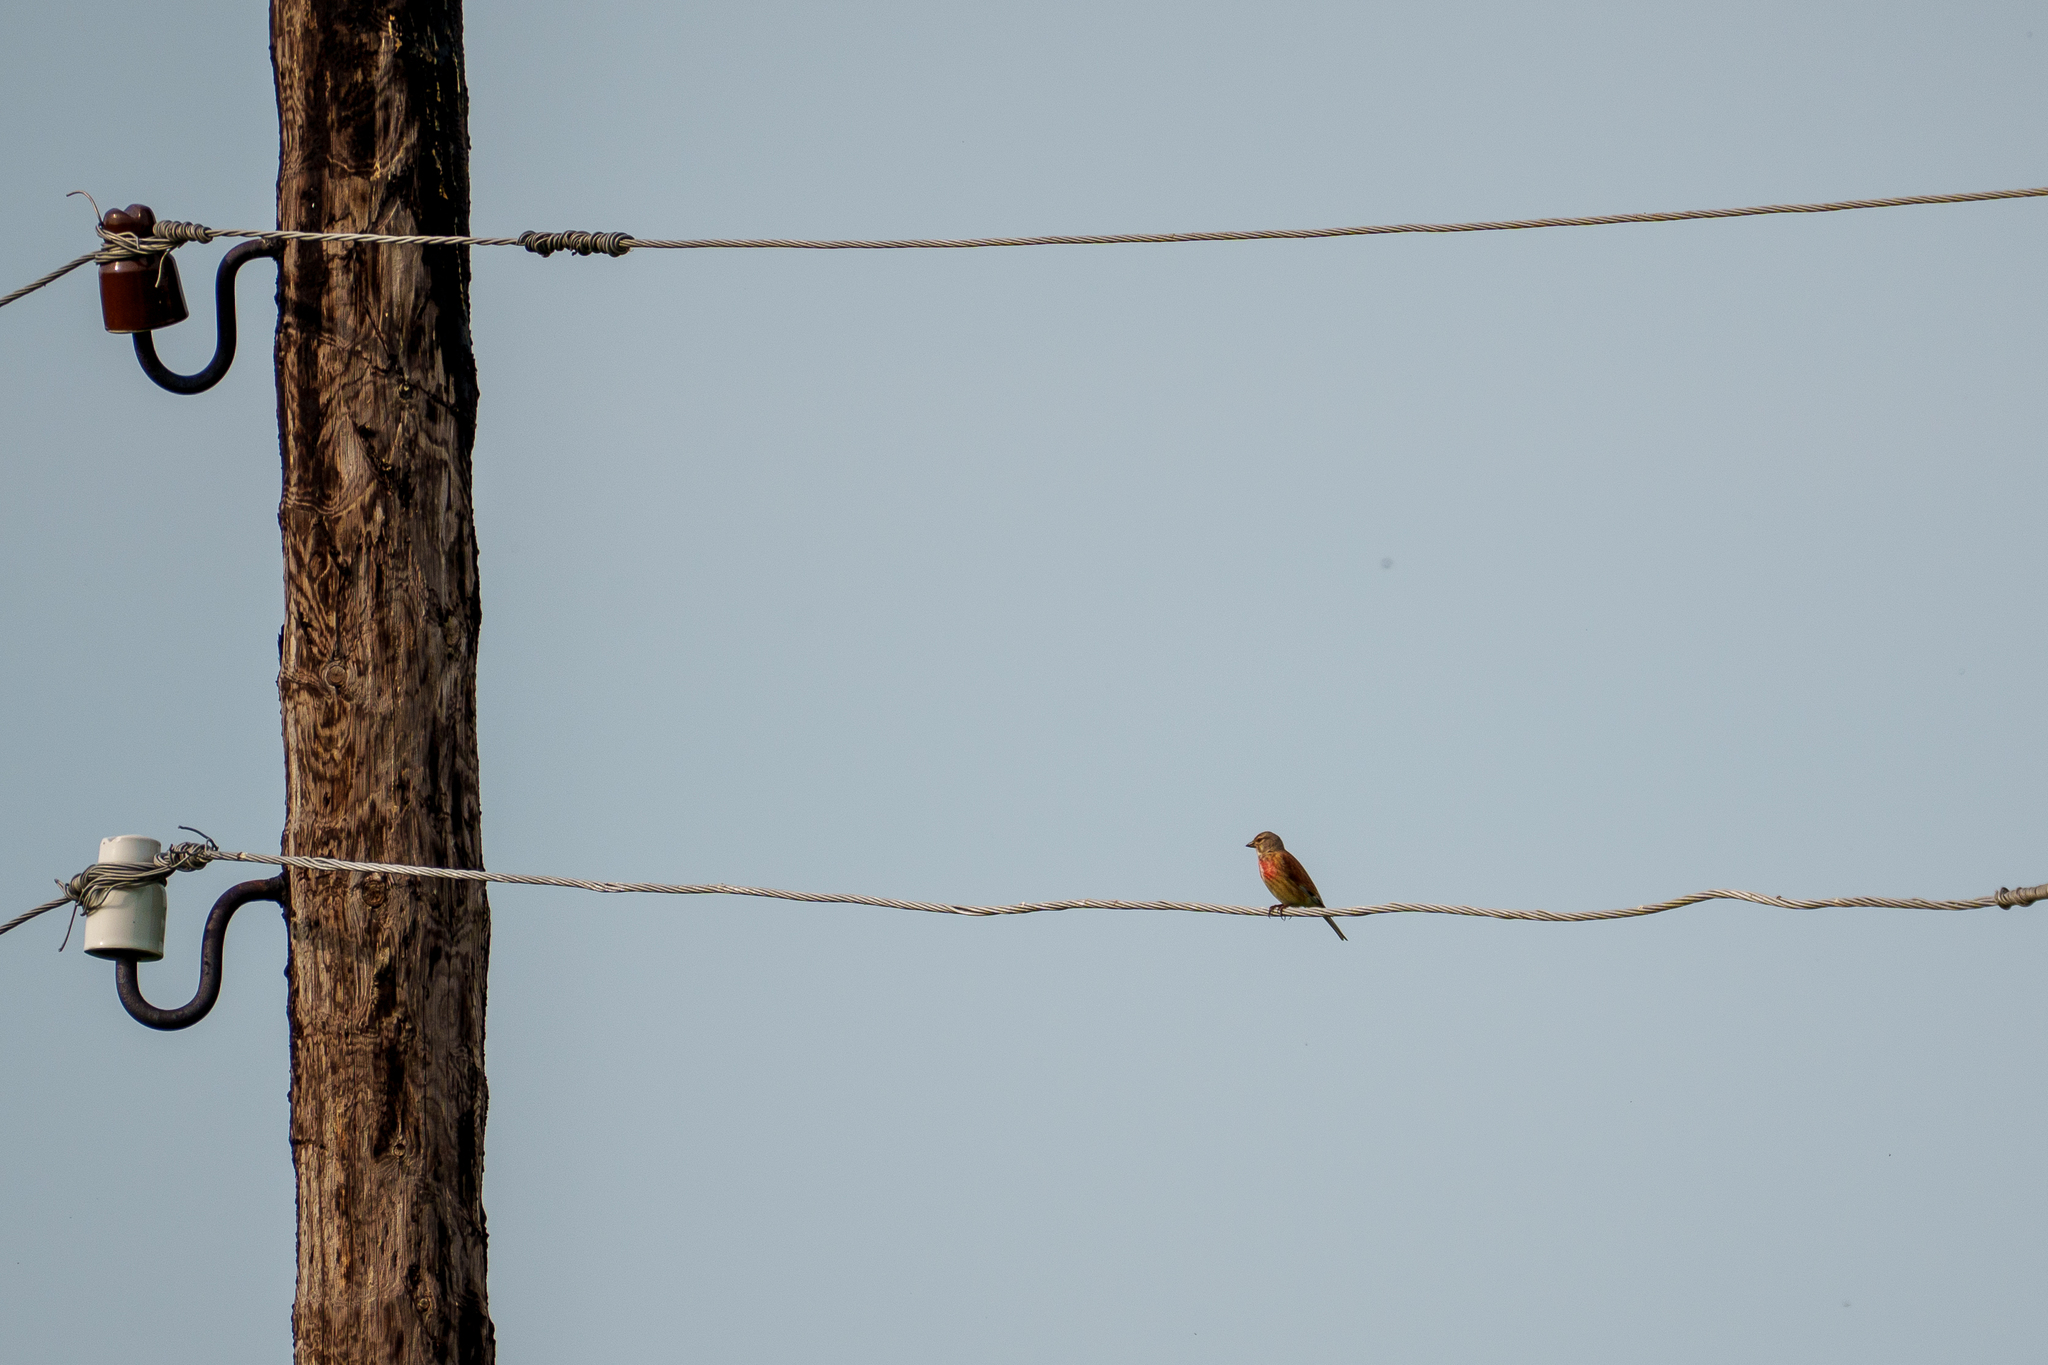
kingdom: Animalia
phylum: Chordata
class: Aves
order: Passeriformes
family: Fringillidae
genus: Linaria
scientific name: Linaria cannabina
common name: Common linnet
